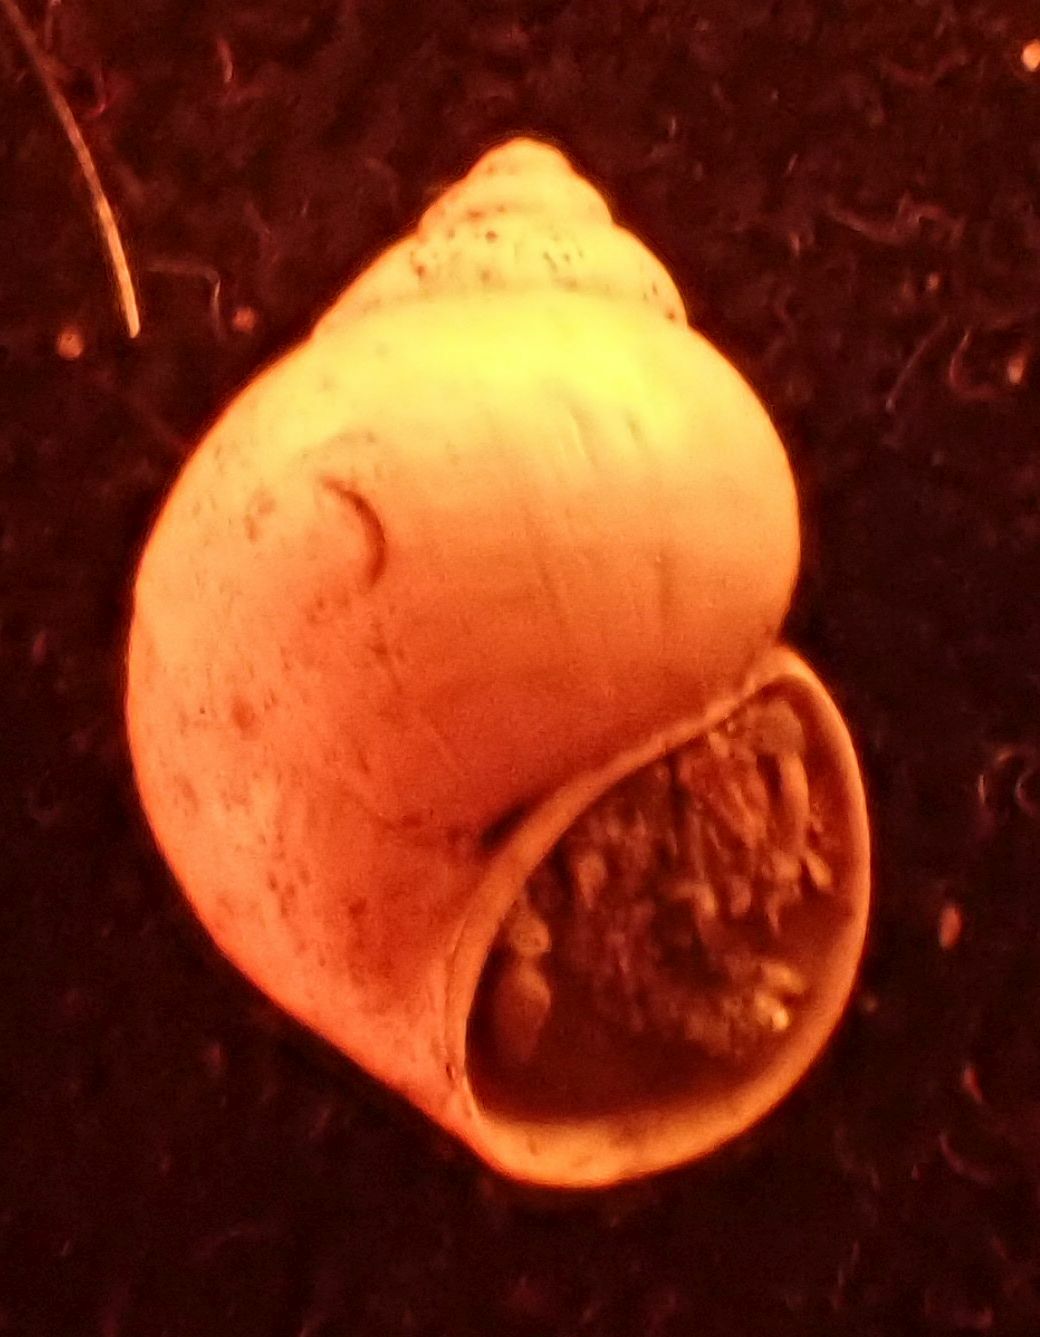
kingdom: Animalia
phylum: Mollusca
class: Gastropoda
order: Littorinimorpha
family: Bithyniidae
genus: Bithynia
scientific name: Bithynia tentaculata
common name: Common bithynia
